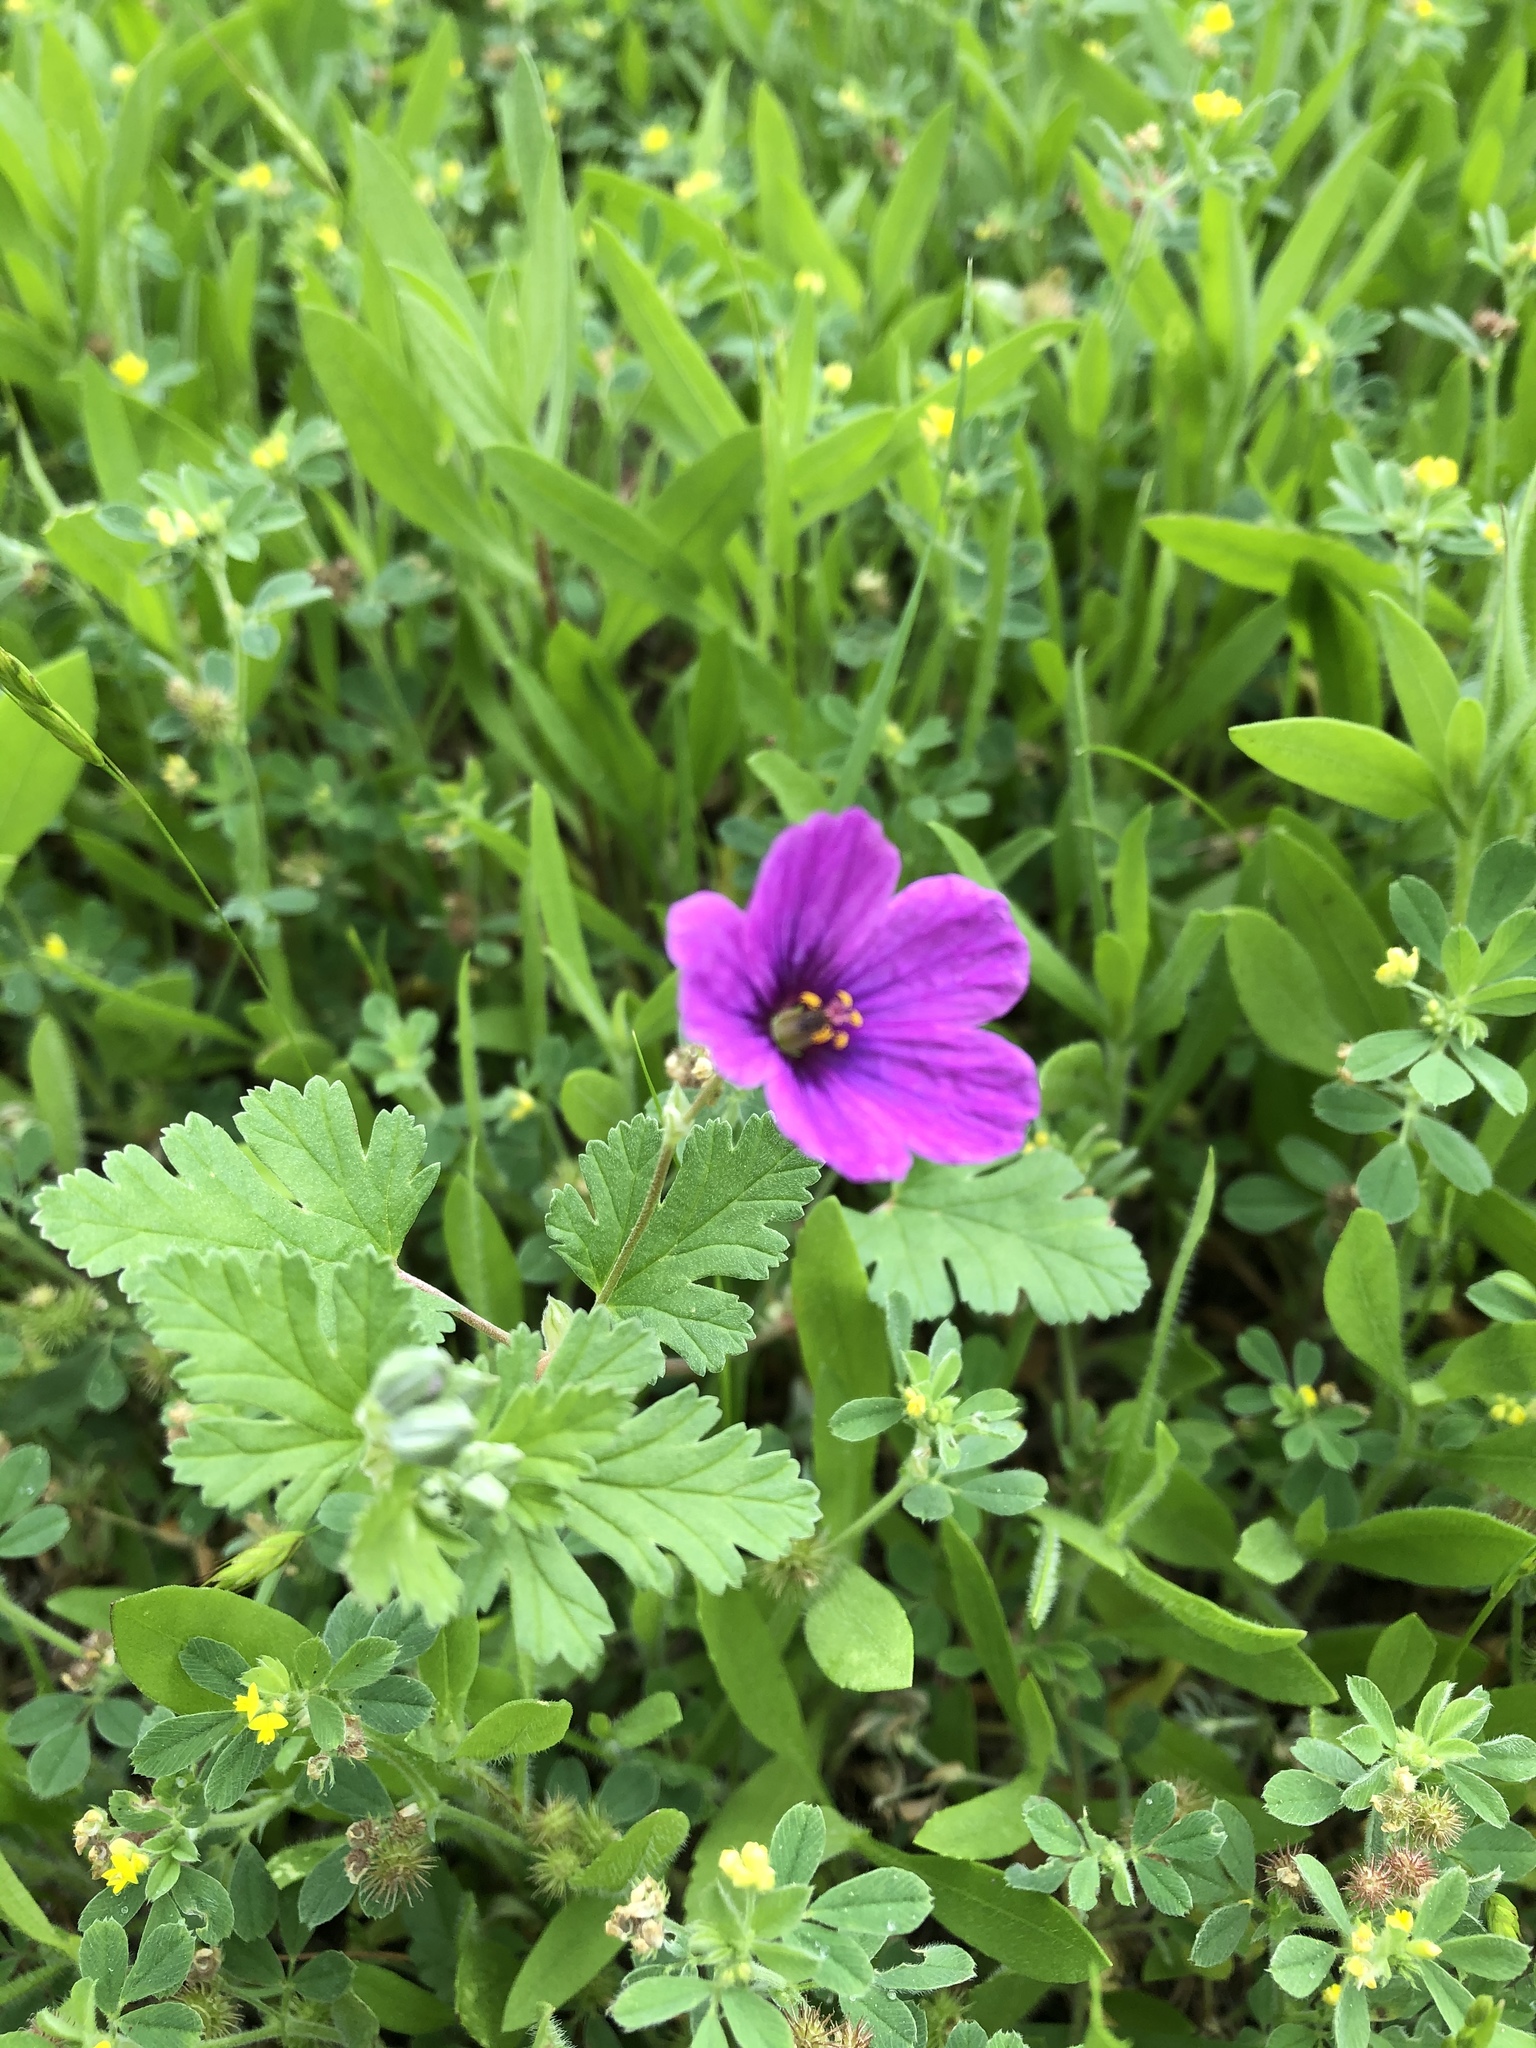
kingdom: Plantae
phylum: Tracheophyta
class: Magnoliopsida
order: Geraniales
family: Geraniaceae
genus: Erodium
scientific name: Erodium texanum
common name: Texas stork's-bill
